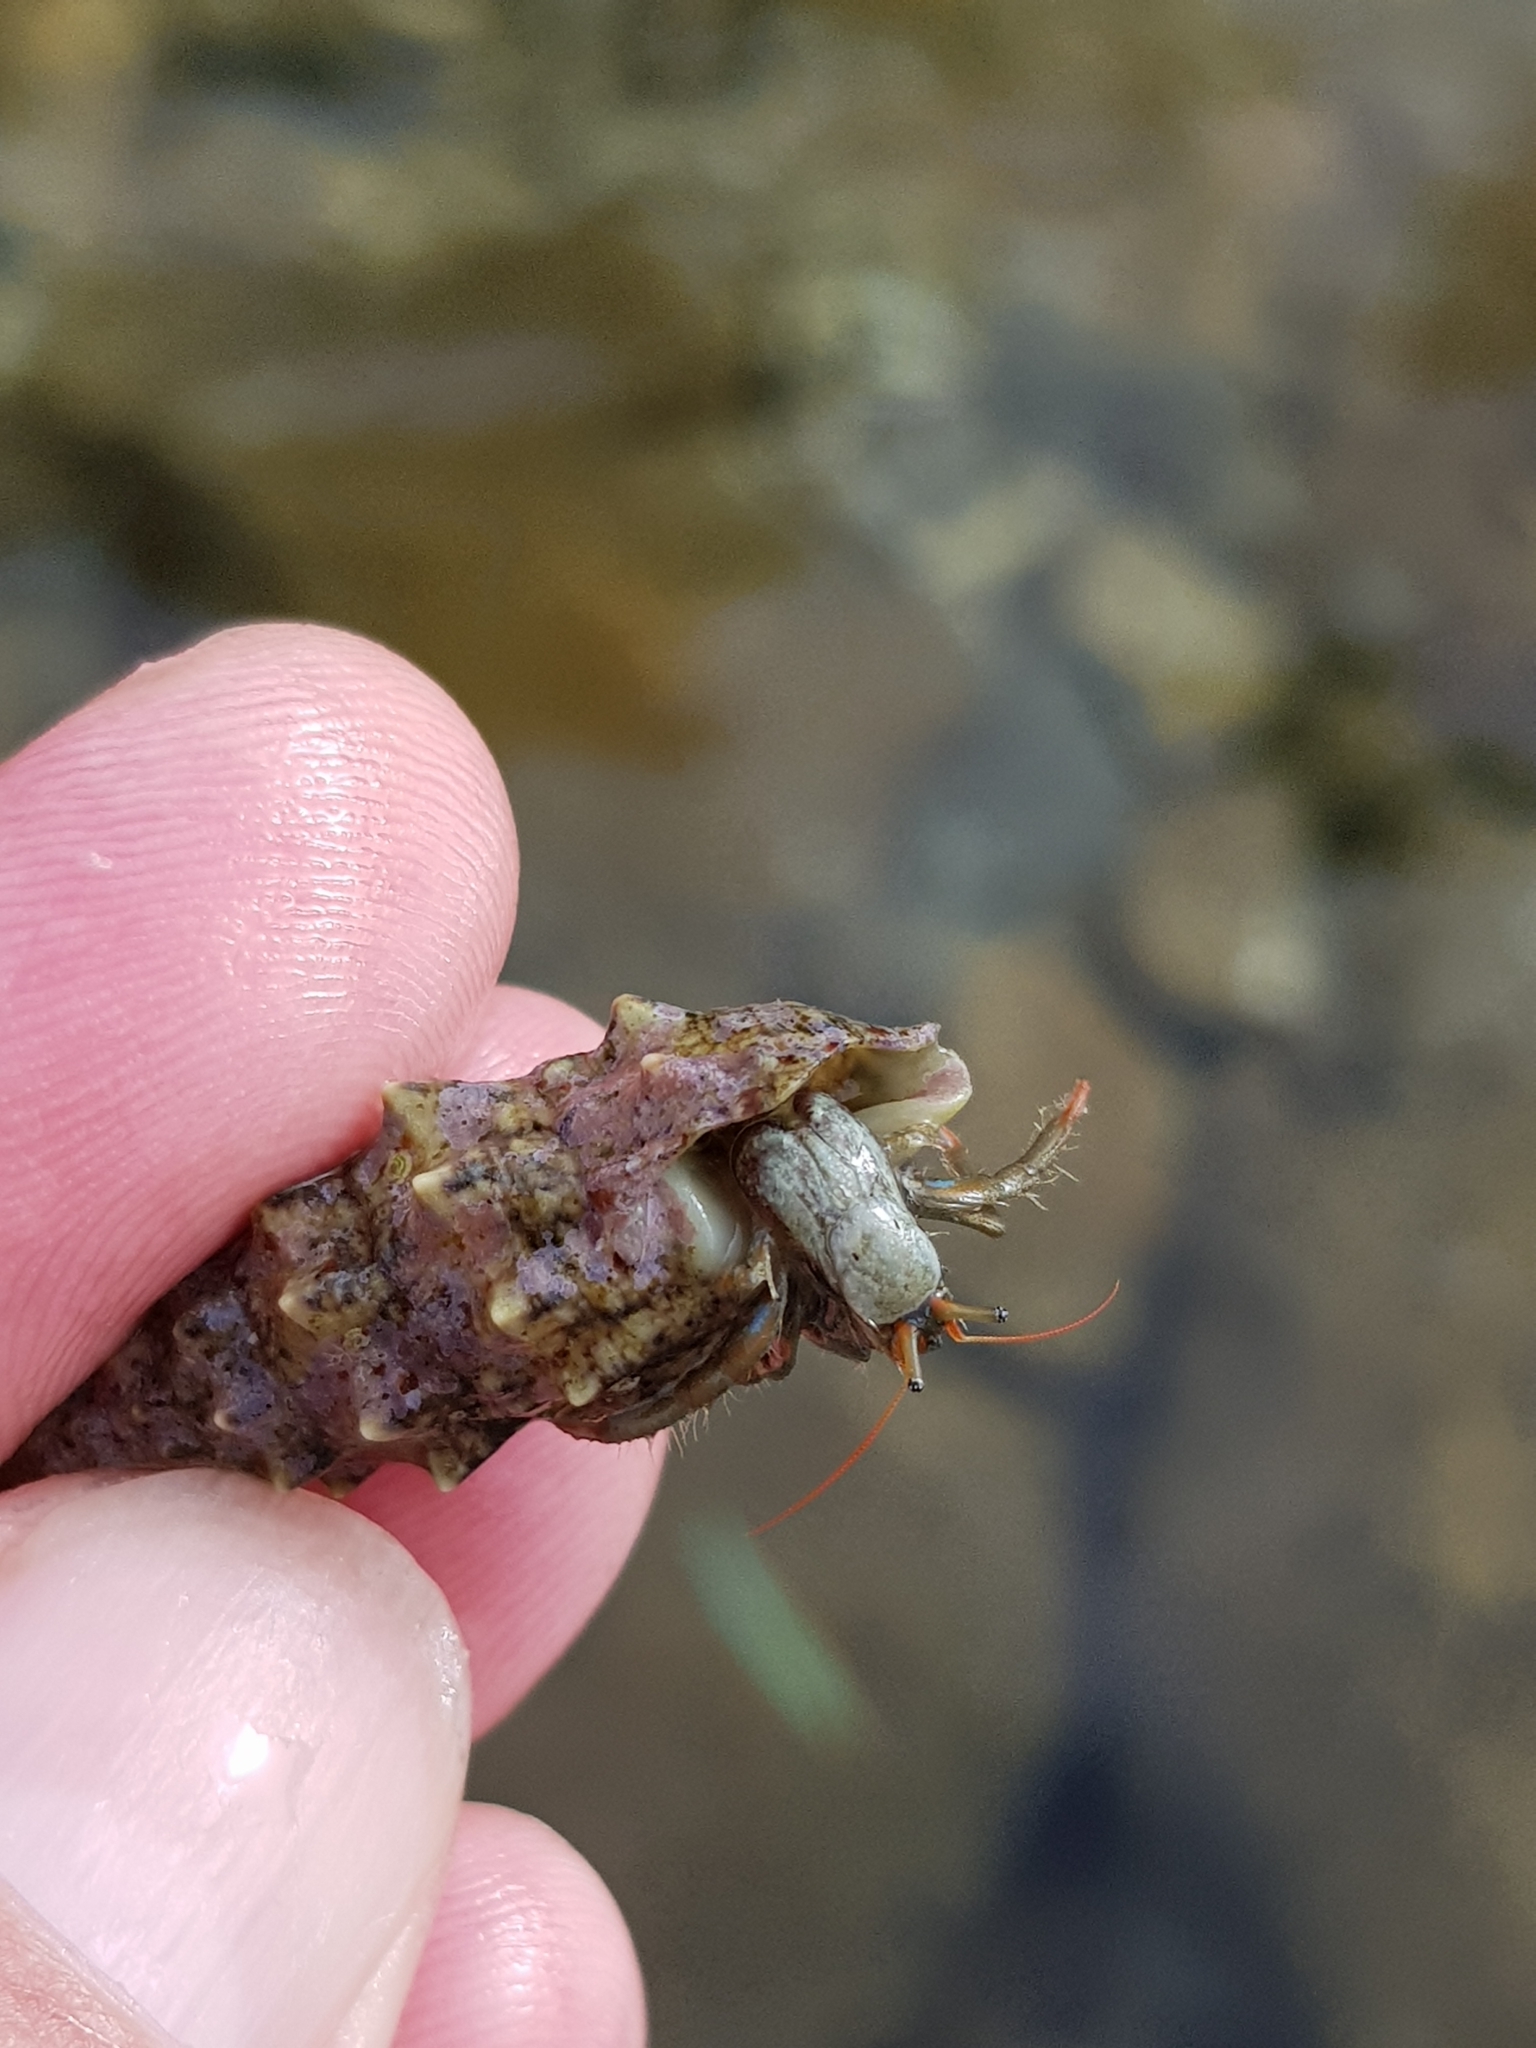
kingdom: Animalia
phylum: Mollusca
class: Gastropoda
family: Cerithiidae
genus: Cerithium
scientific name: Cerithium vulgatum
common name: European cerith
